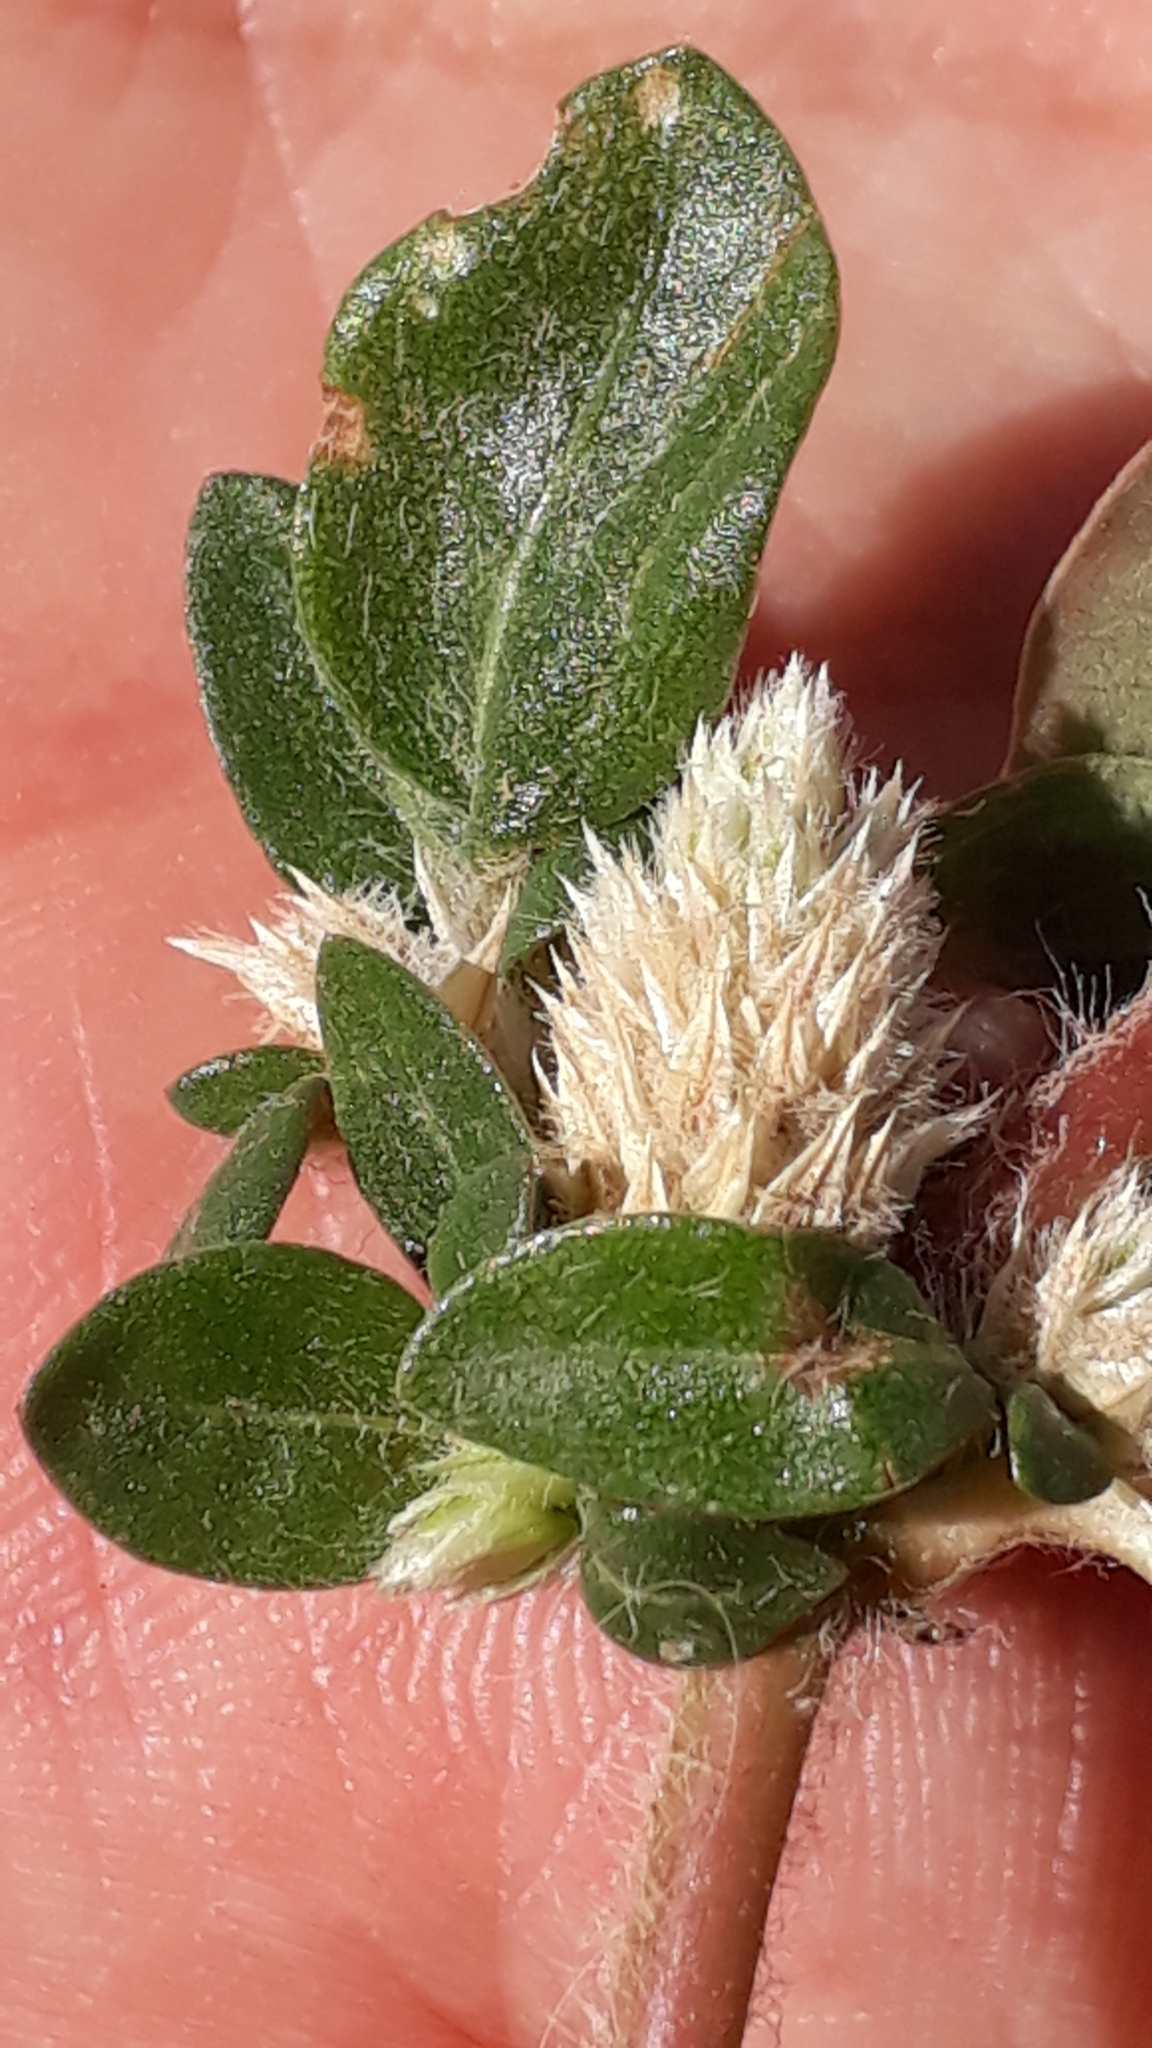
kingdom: Plantae
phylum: Tracheophyta
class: Magnoliopsida
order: Caryophyllales
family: Amaranthaceae
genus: Alternanthera
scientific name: Alternanthera caracasana
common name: Washerwoman
